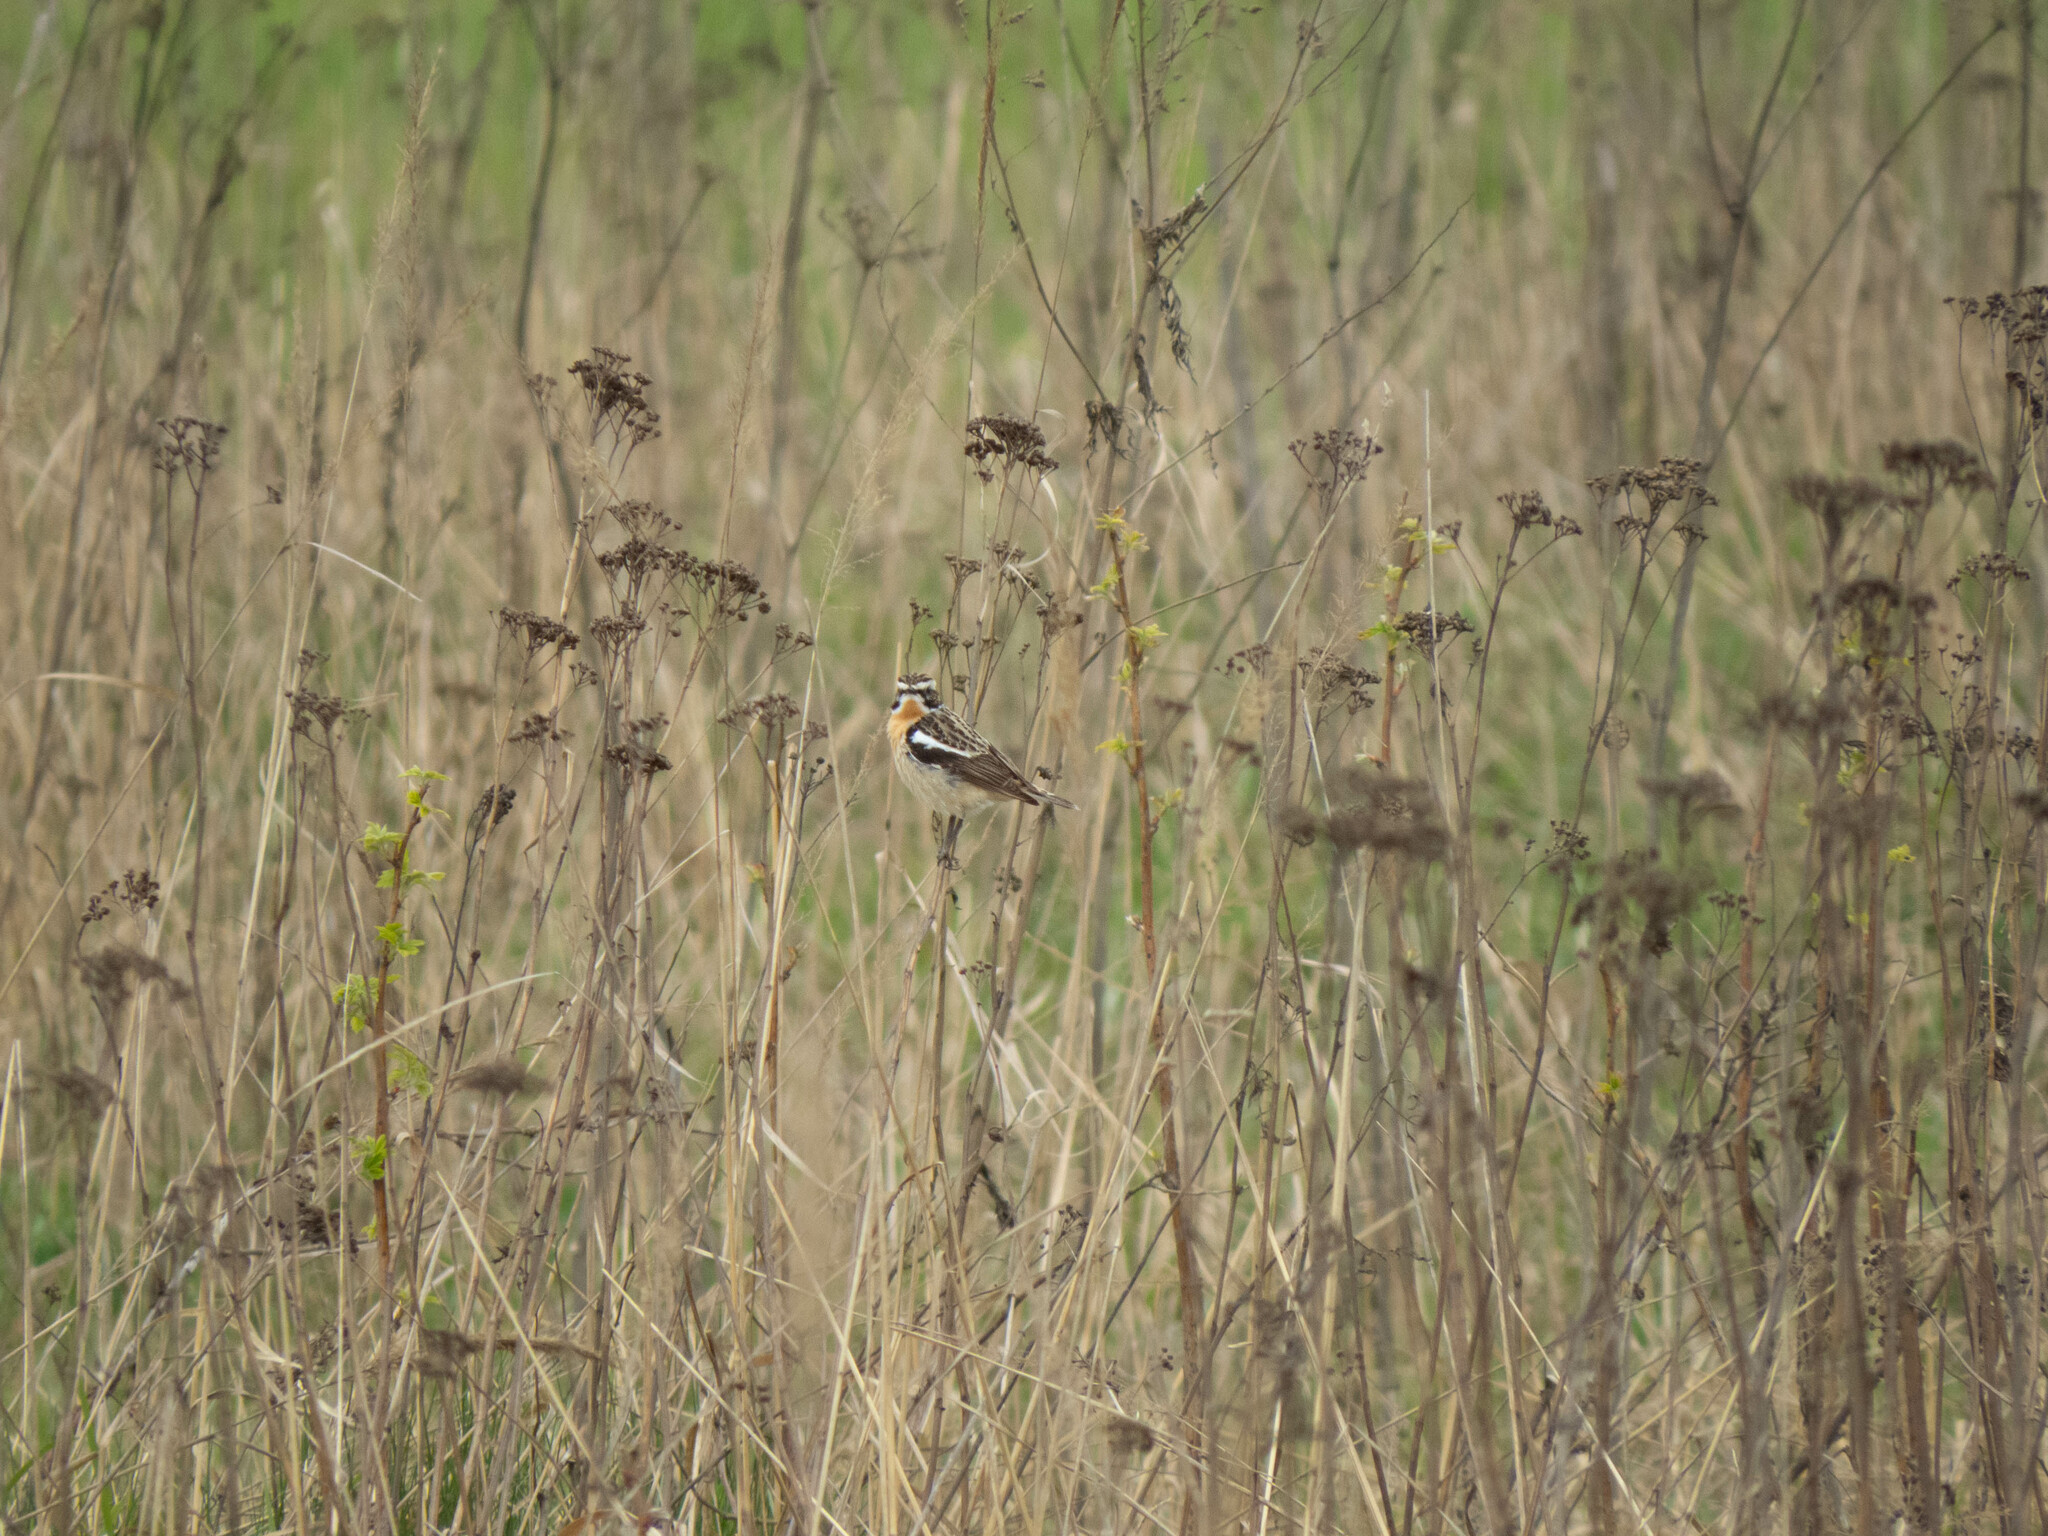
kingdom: Animalia
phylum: Chordata
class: Aves
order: Passeriformes
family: Muscicapidae
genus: Saxicola
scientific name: Saxicola rubetra
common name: Whinchat
